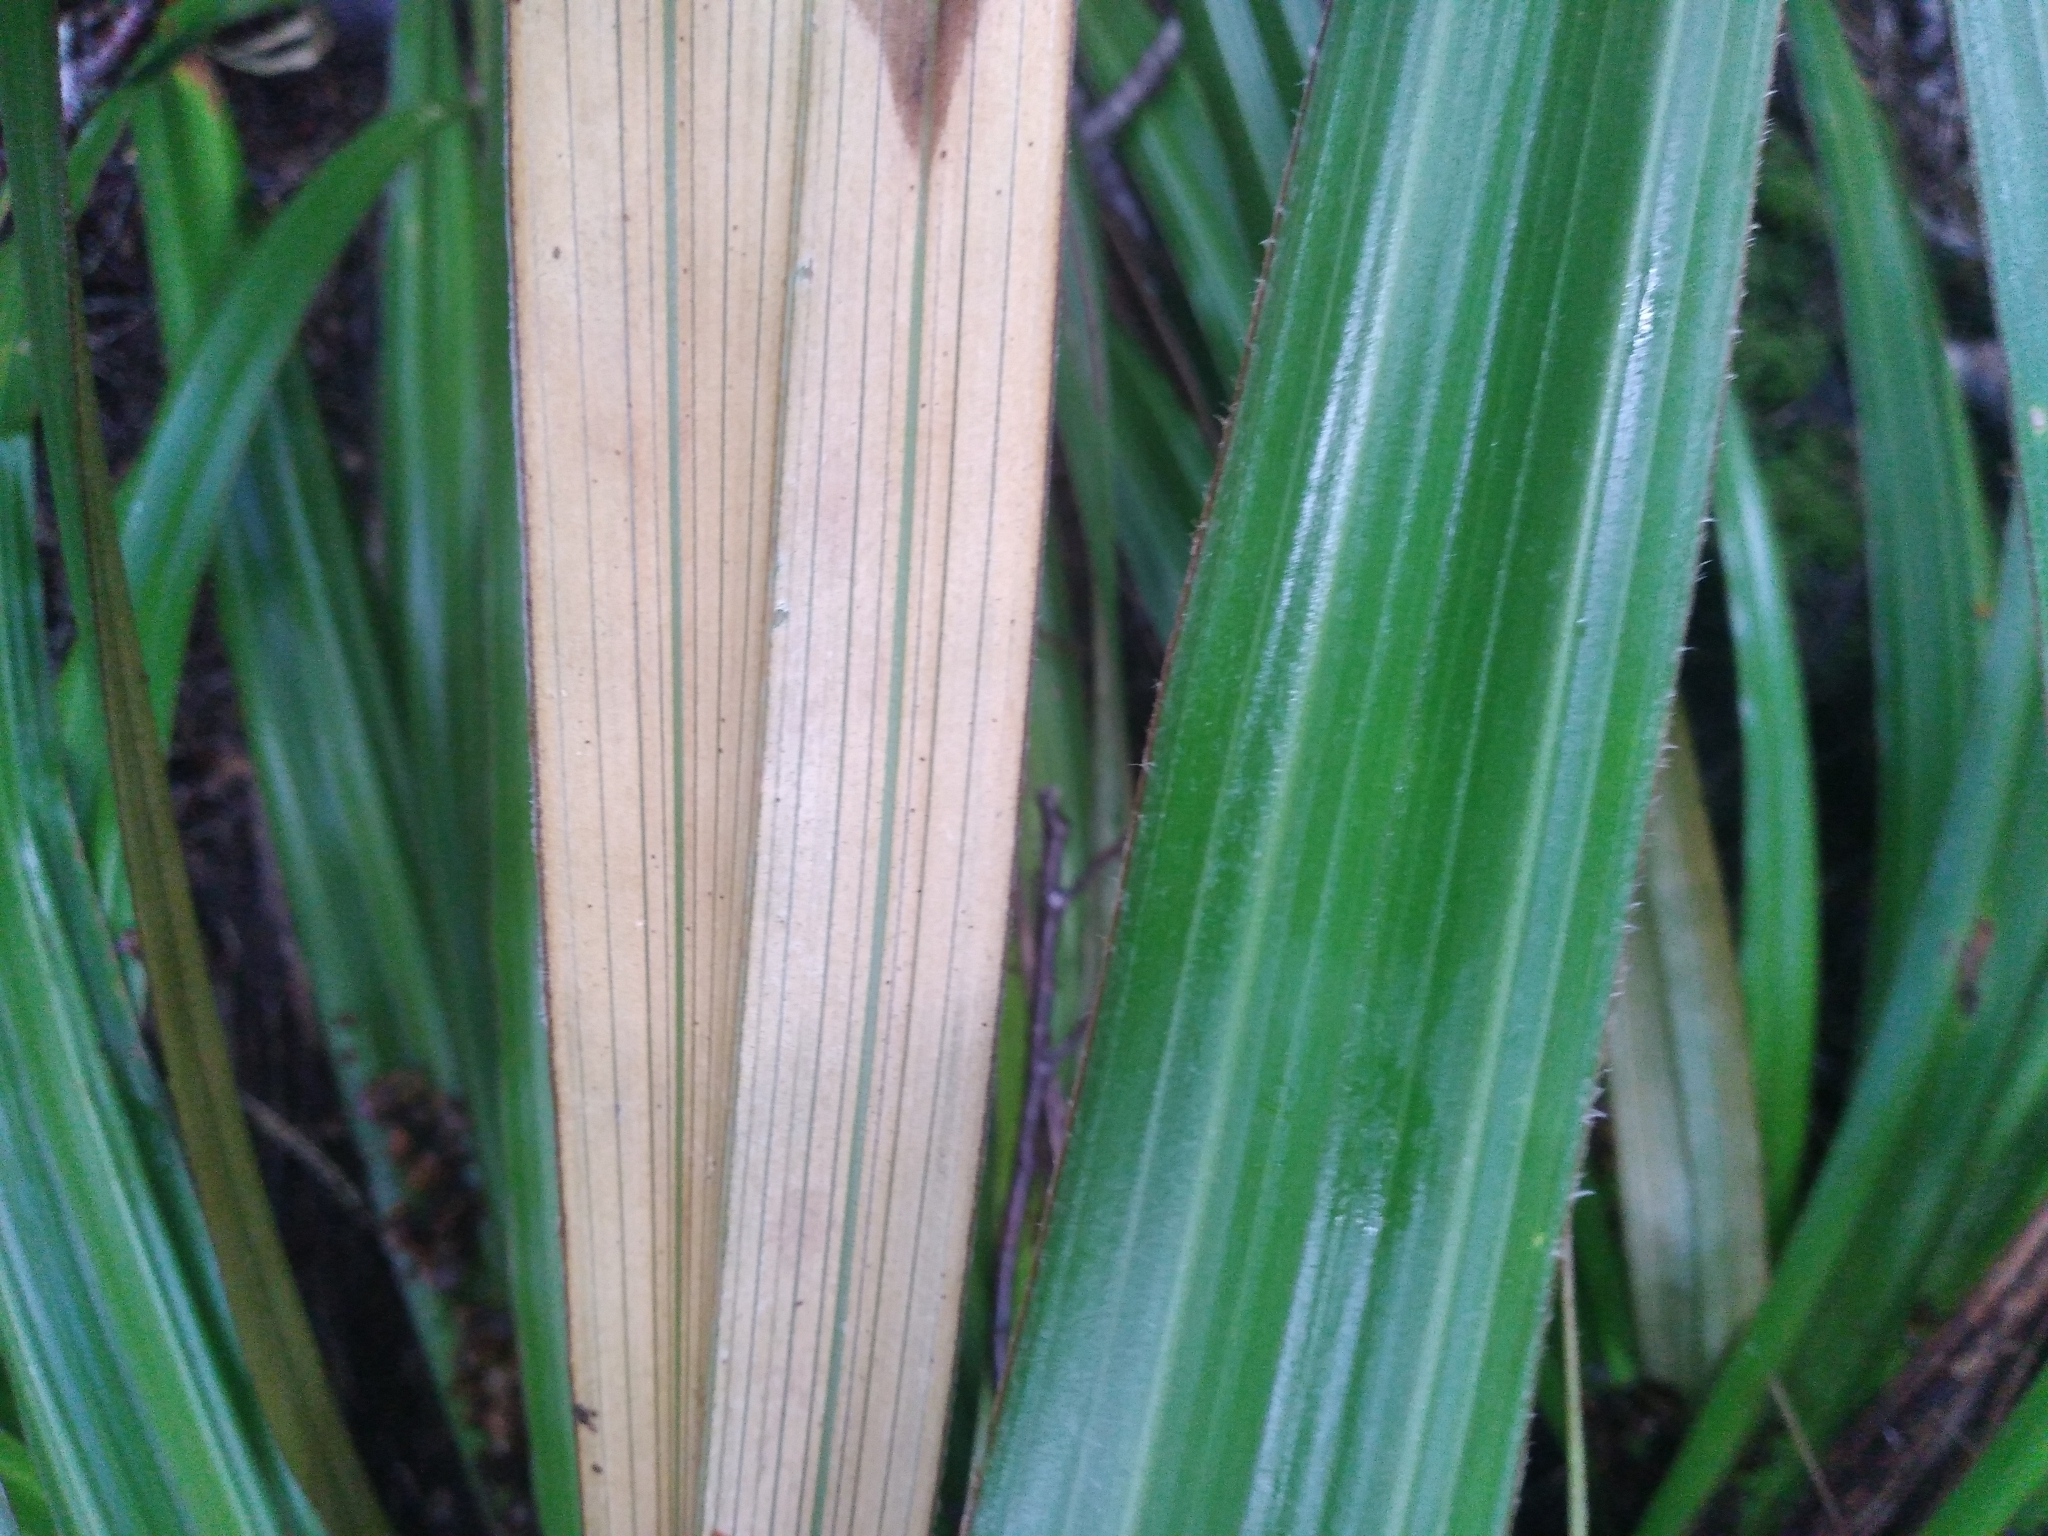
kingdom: Plantae
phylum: Tracheophyta
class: Liliopsida
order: Asparagales
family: Asteliaceae
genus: Astelia
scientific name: Astelia nivicola
